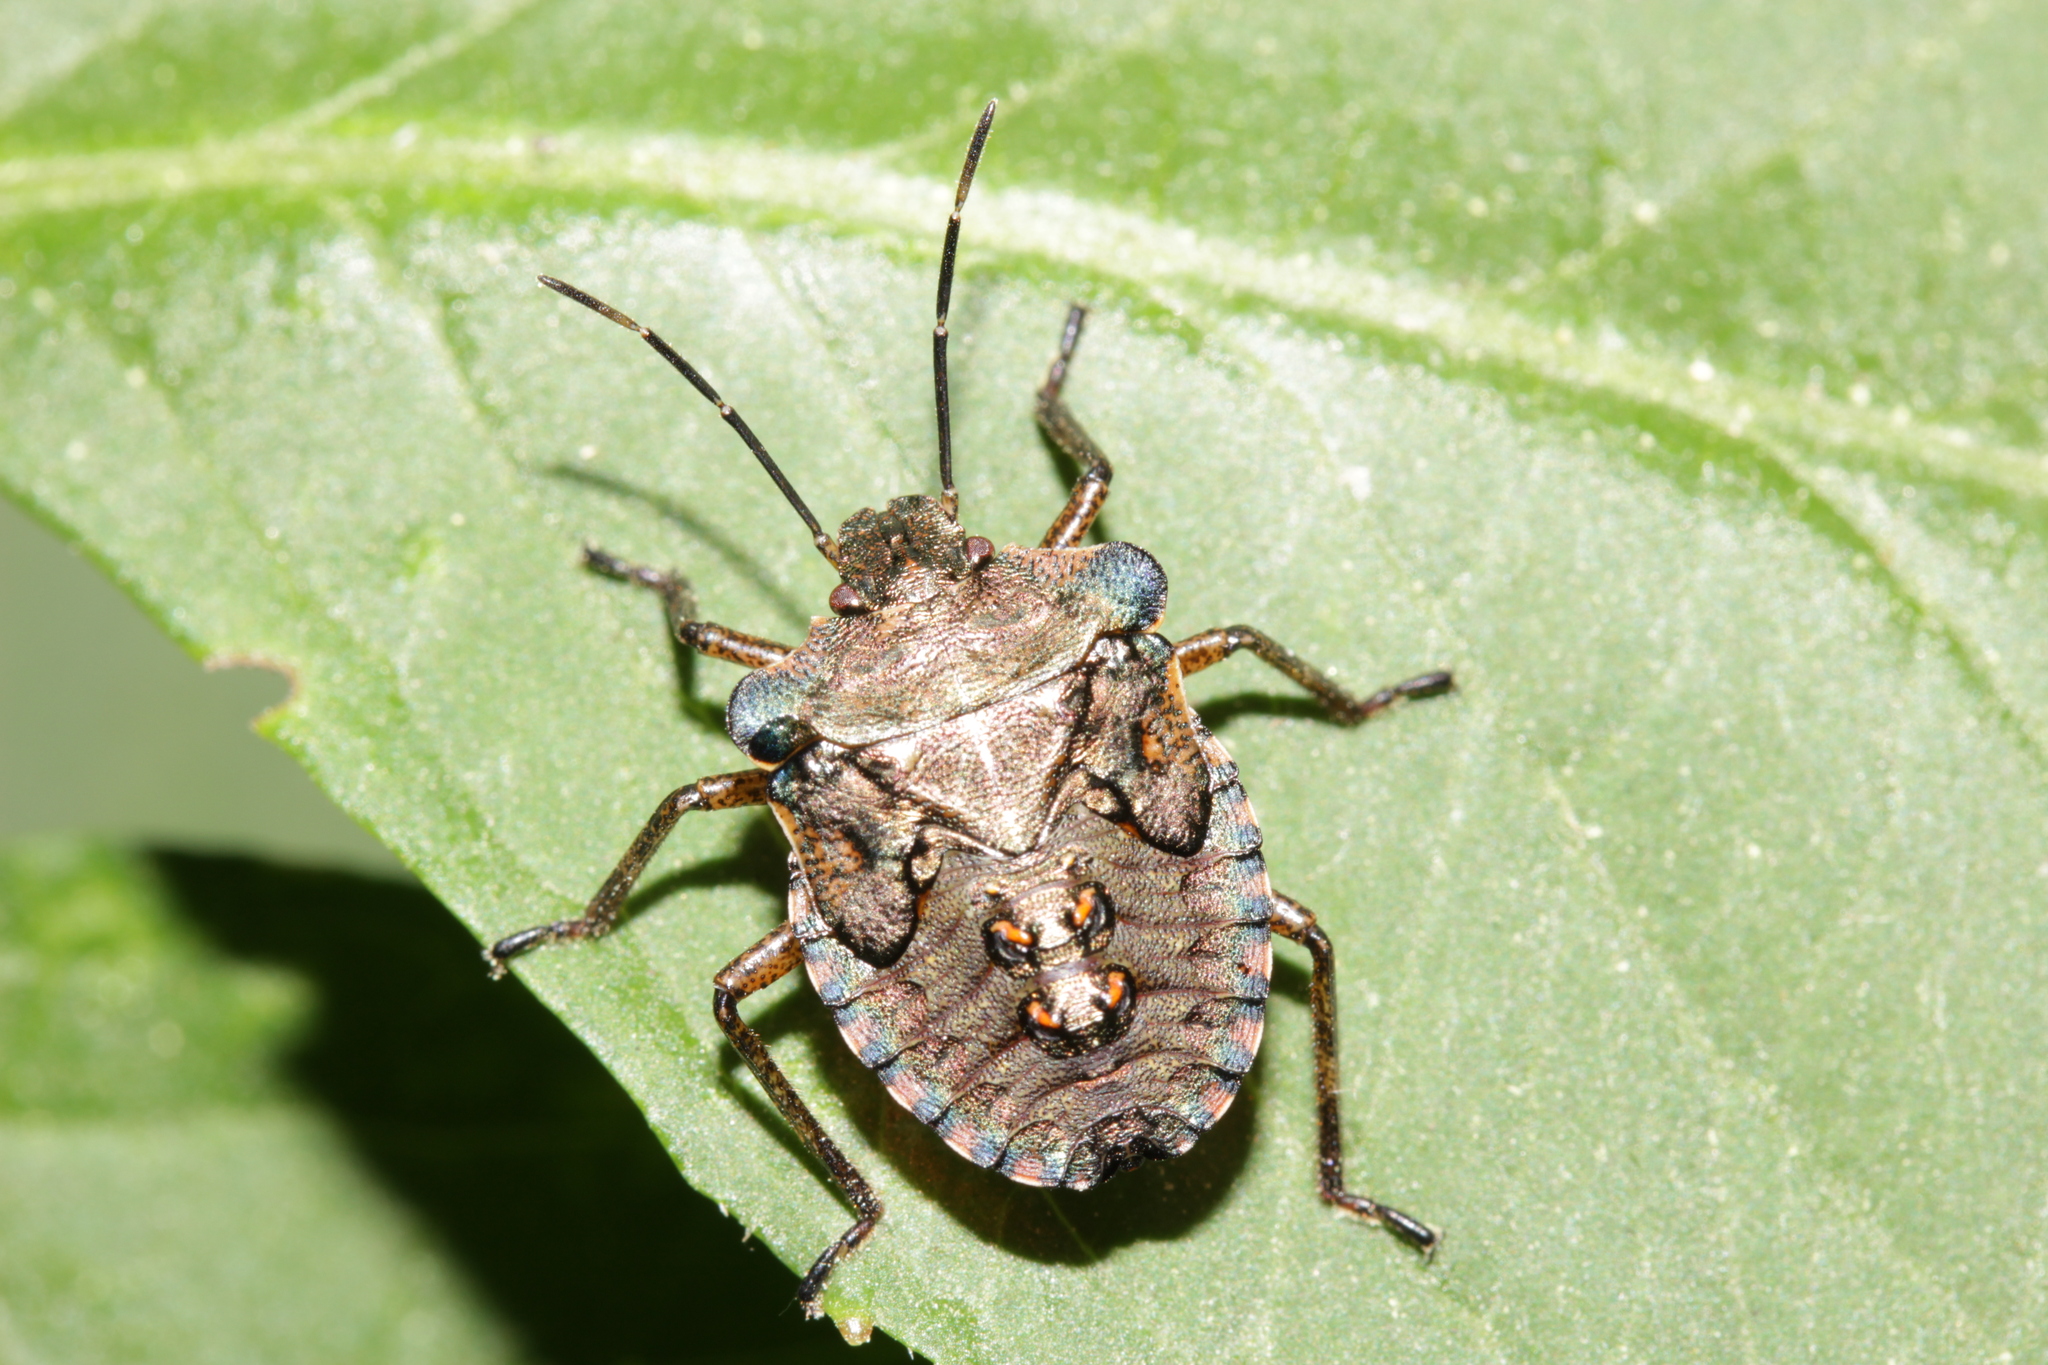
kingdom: Animalia
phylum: Arthropoda
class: Insecta
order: Hemiptera
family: Pentatomidae
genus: Pentatoma
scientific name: Pentatoma rufipes
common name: Forest bug
